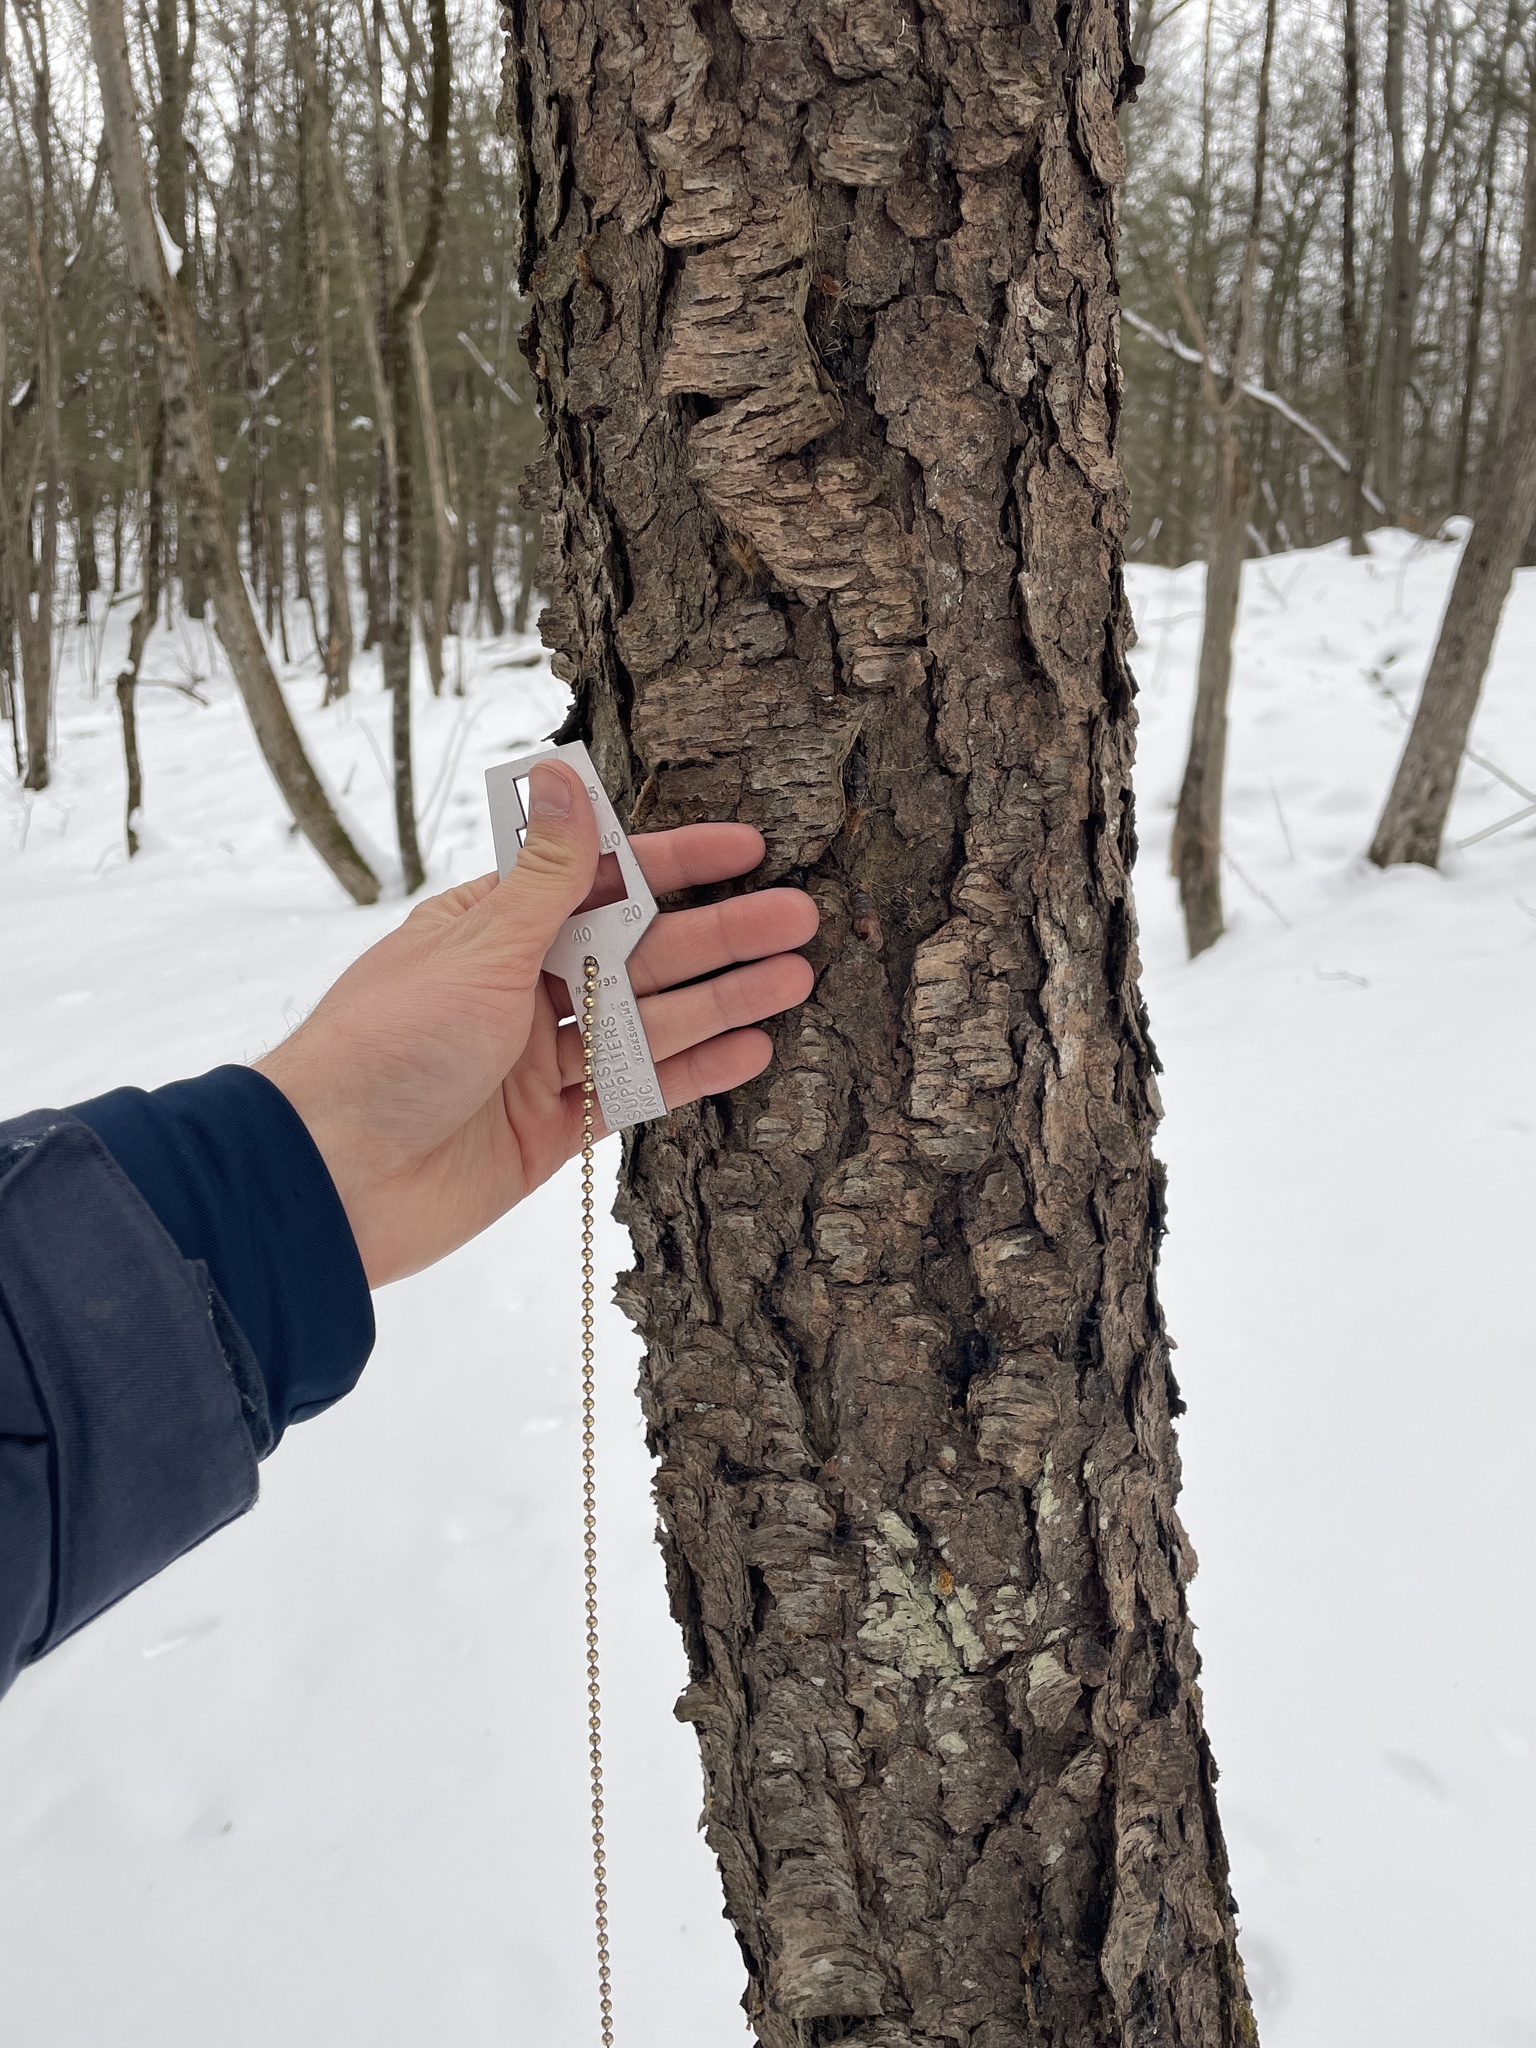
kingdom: Plantae
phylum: Tracheophyta
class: Magnoliopsida
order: Rosales
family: Rosaceae
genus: Prunus
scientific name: Prunus serotina
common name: Black cherry
